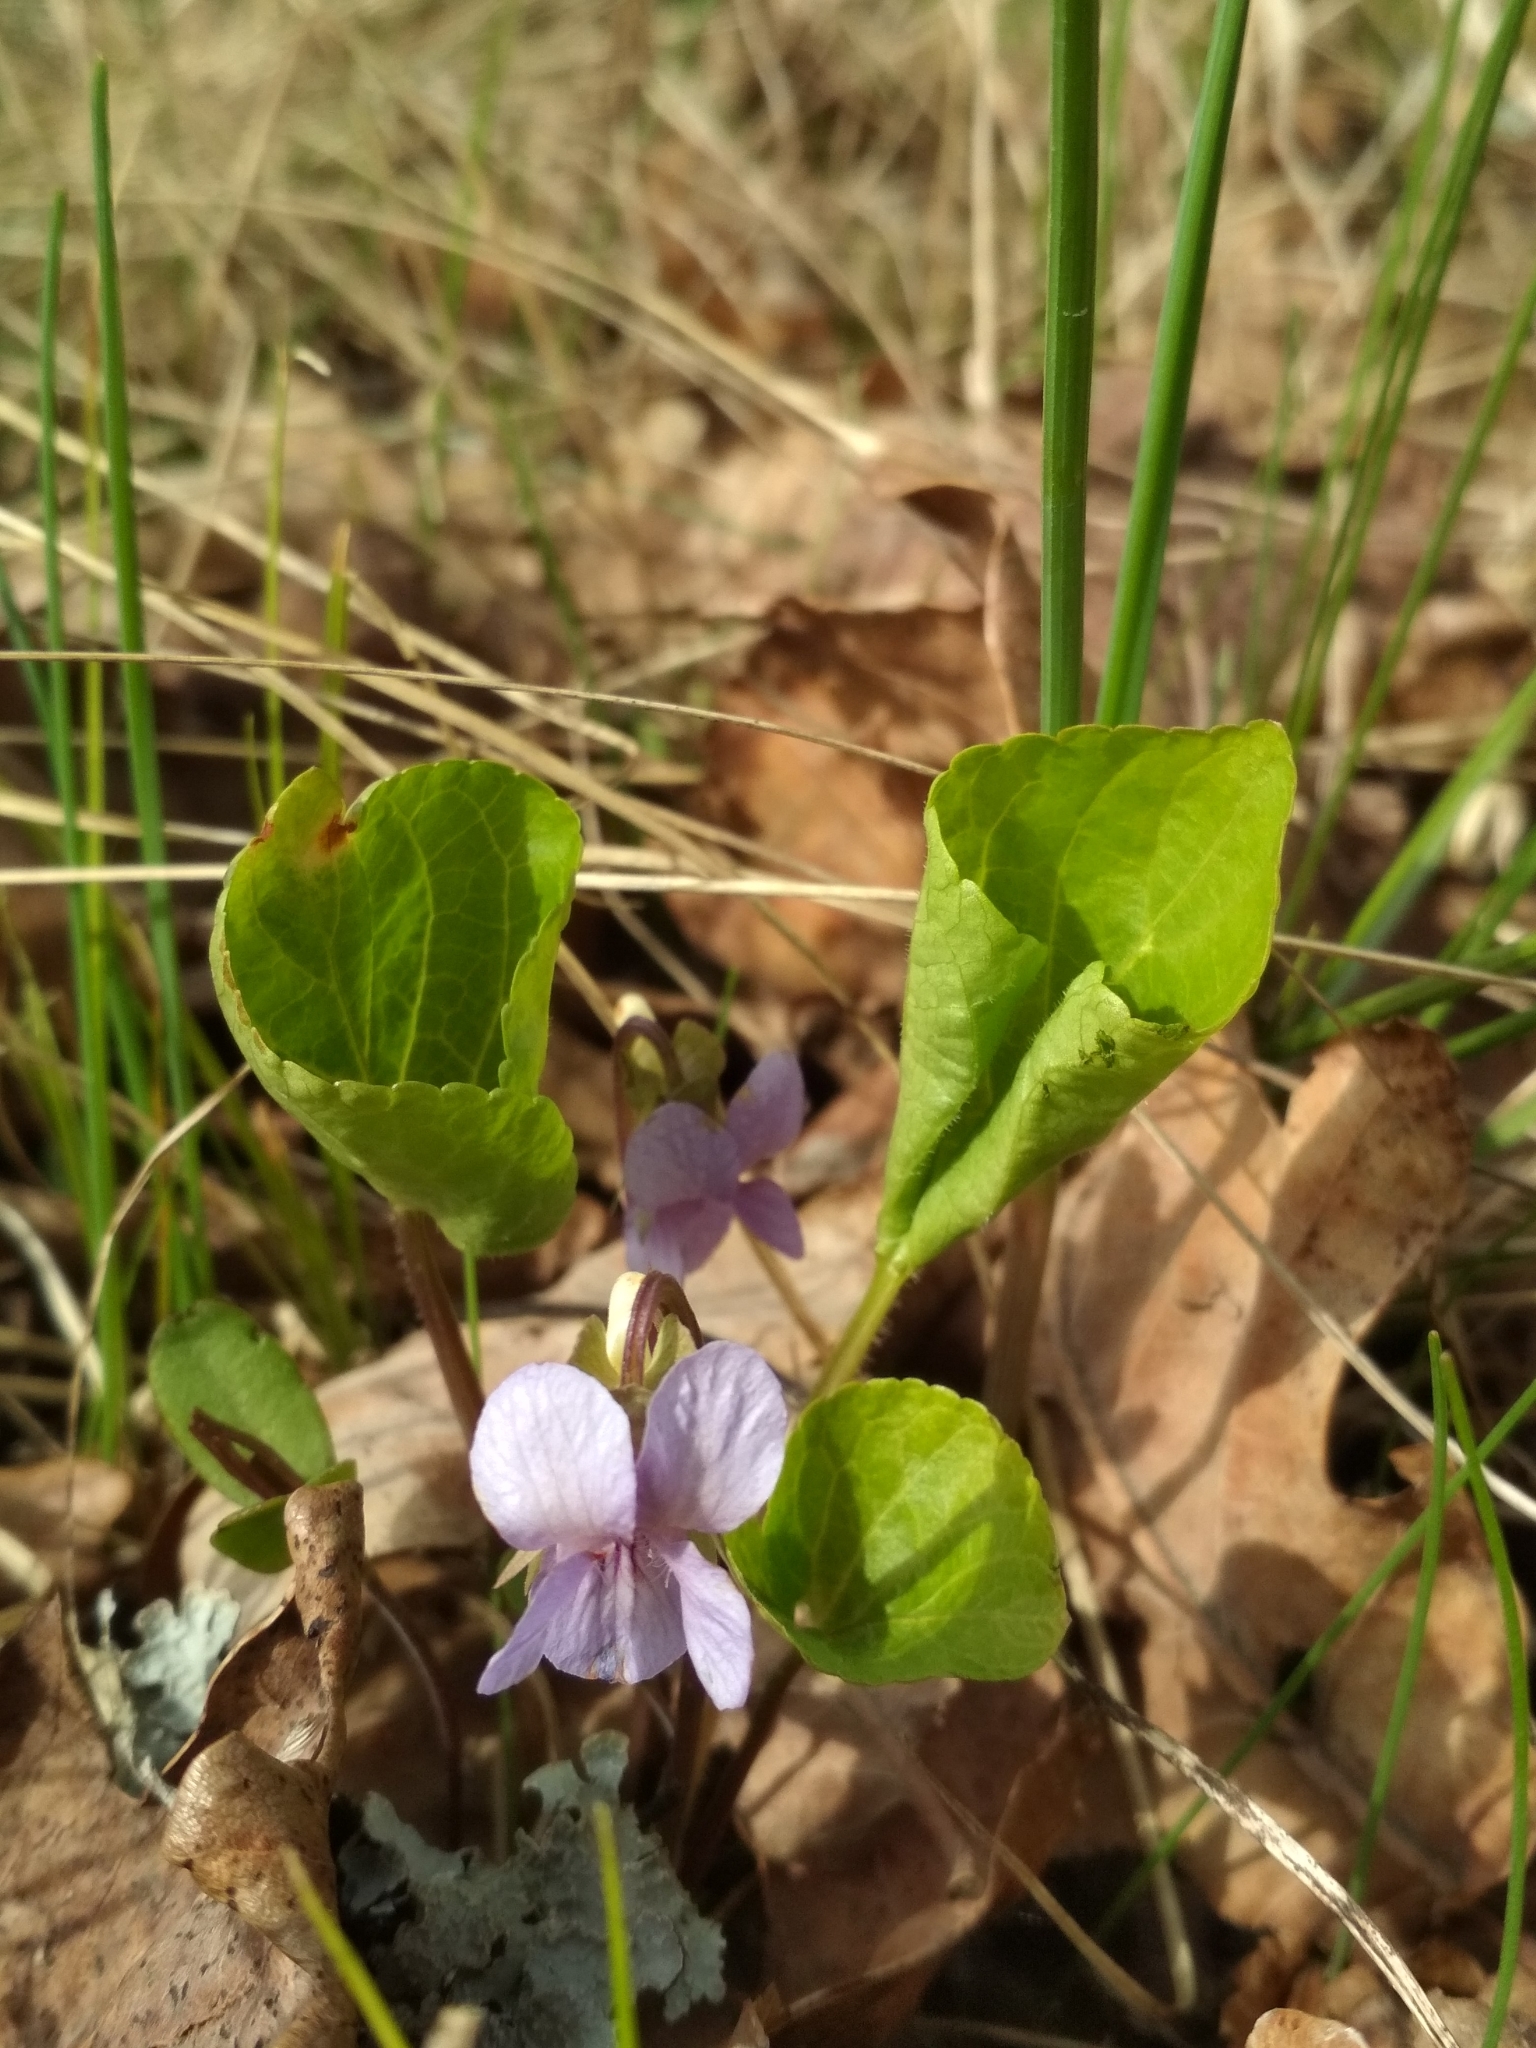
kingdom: Plantae
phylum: Tracheophyta
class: Magnoliopsida
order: Malpighiales
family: Violaceae
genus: Viola
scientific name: Viola mirabilis
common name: Wonder violet
